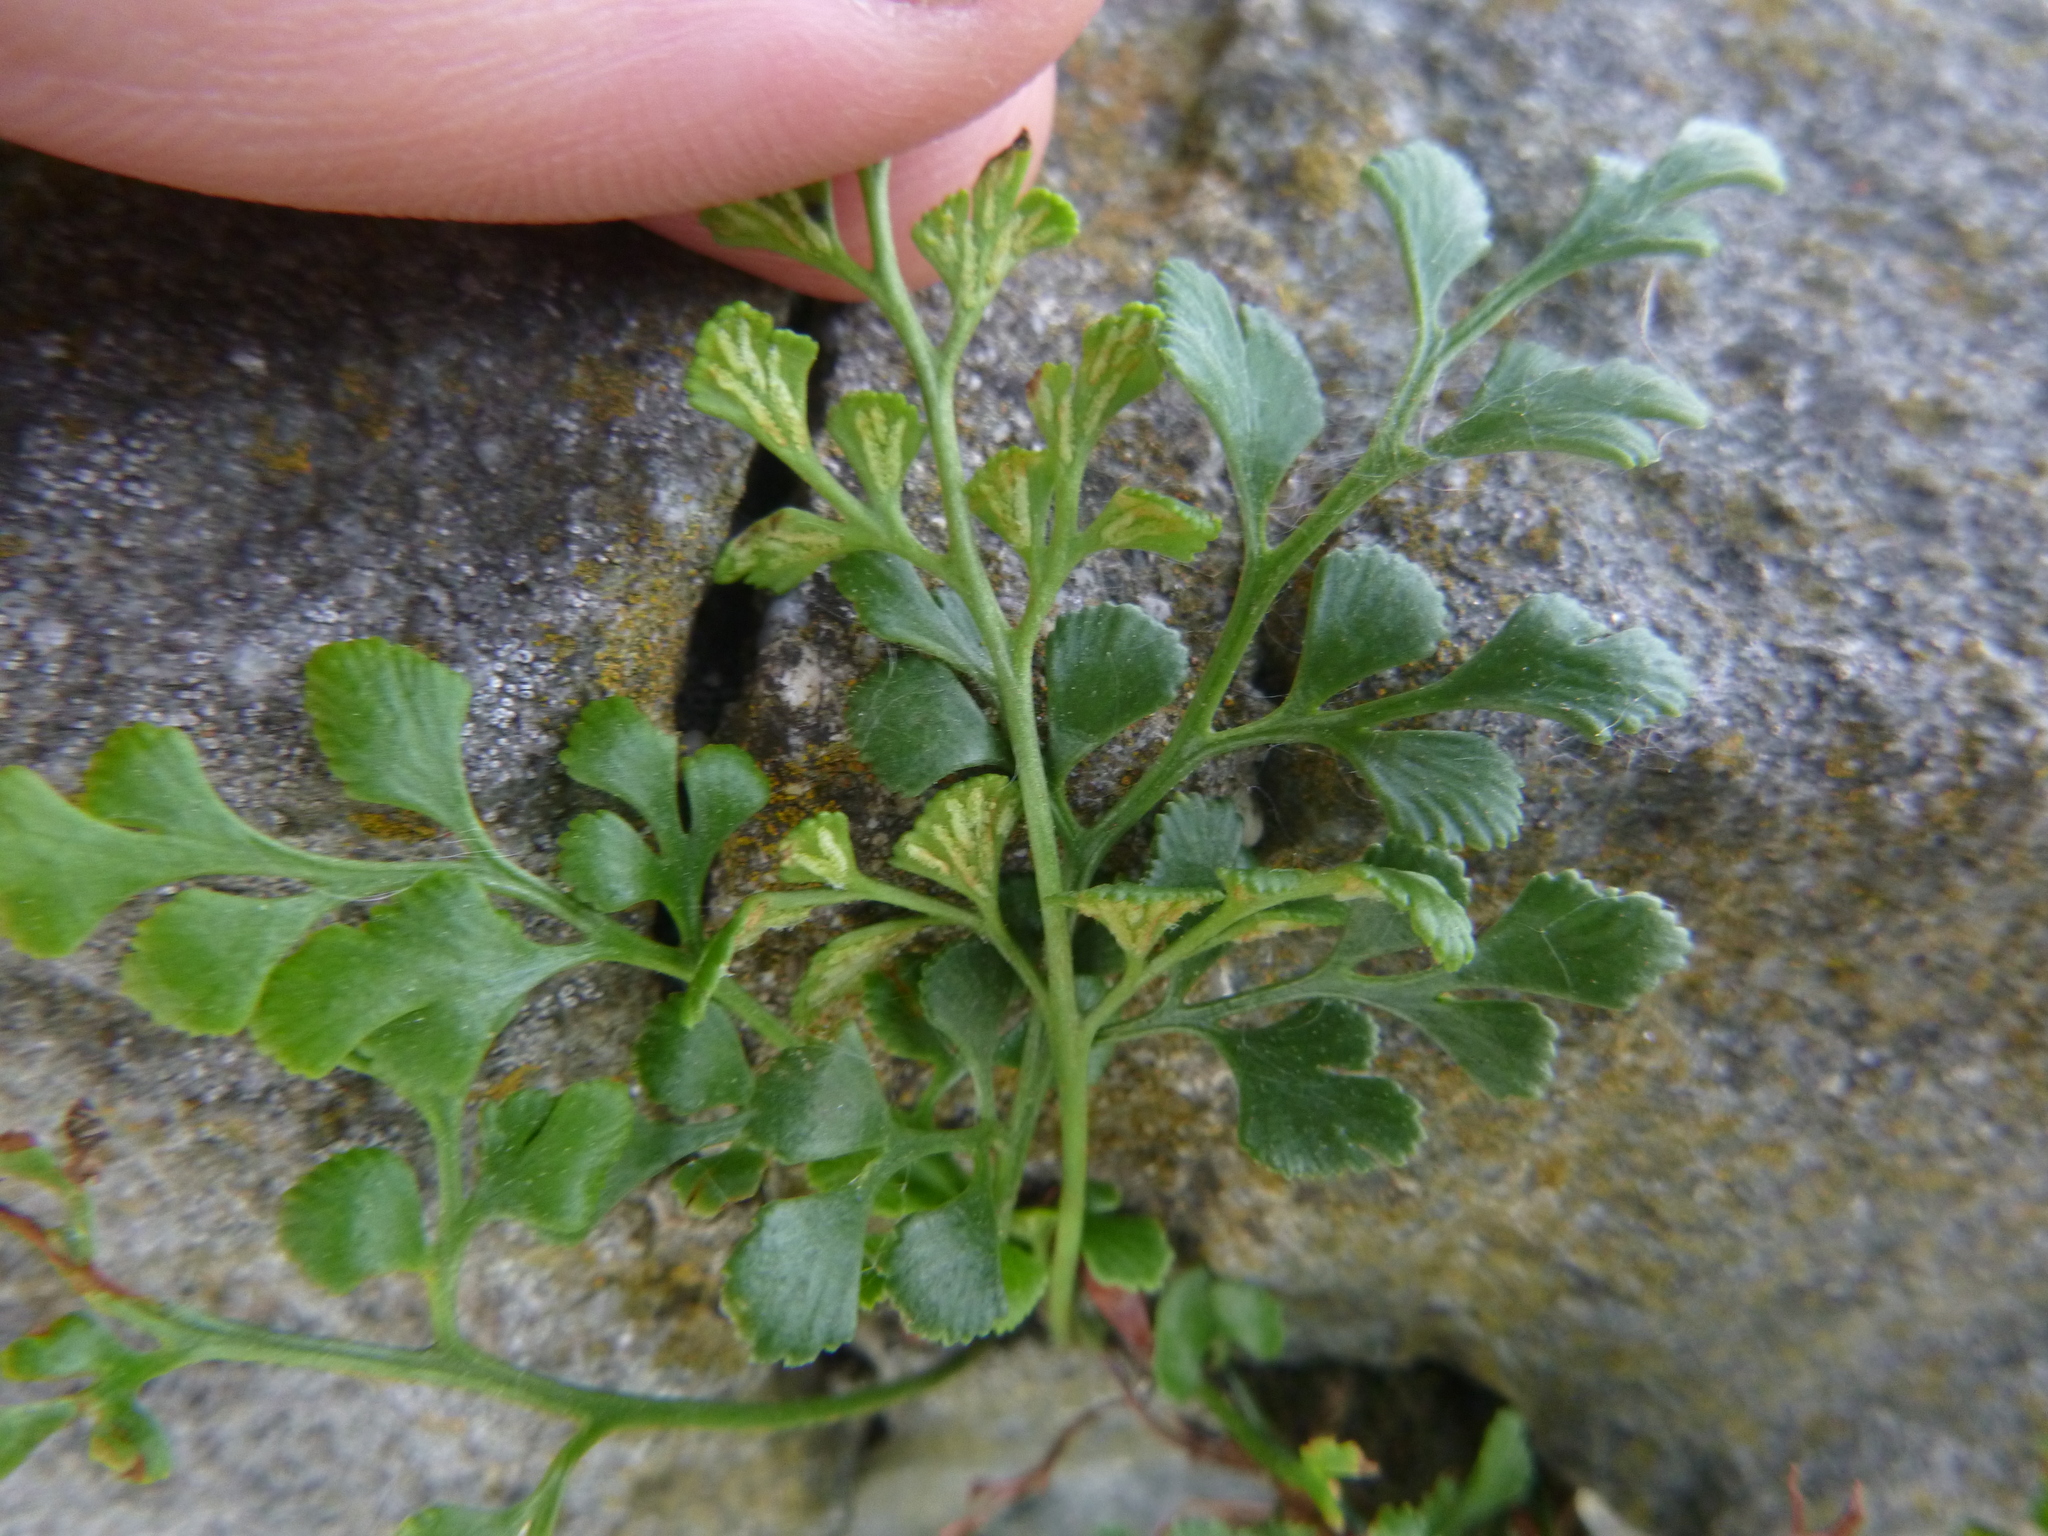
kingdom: Plantae
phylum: Tracheophyta
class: Polypodiopsida
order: Polypodiales
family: Aspleniaceae
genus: Asplenium
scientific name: Asplenium ruta-muraria
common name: Wall-rue
